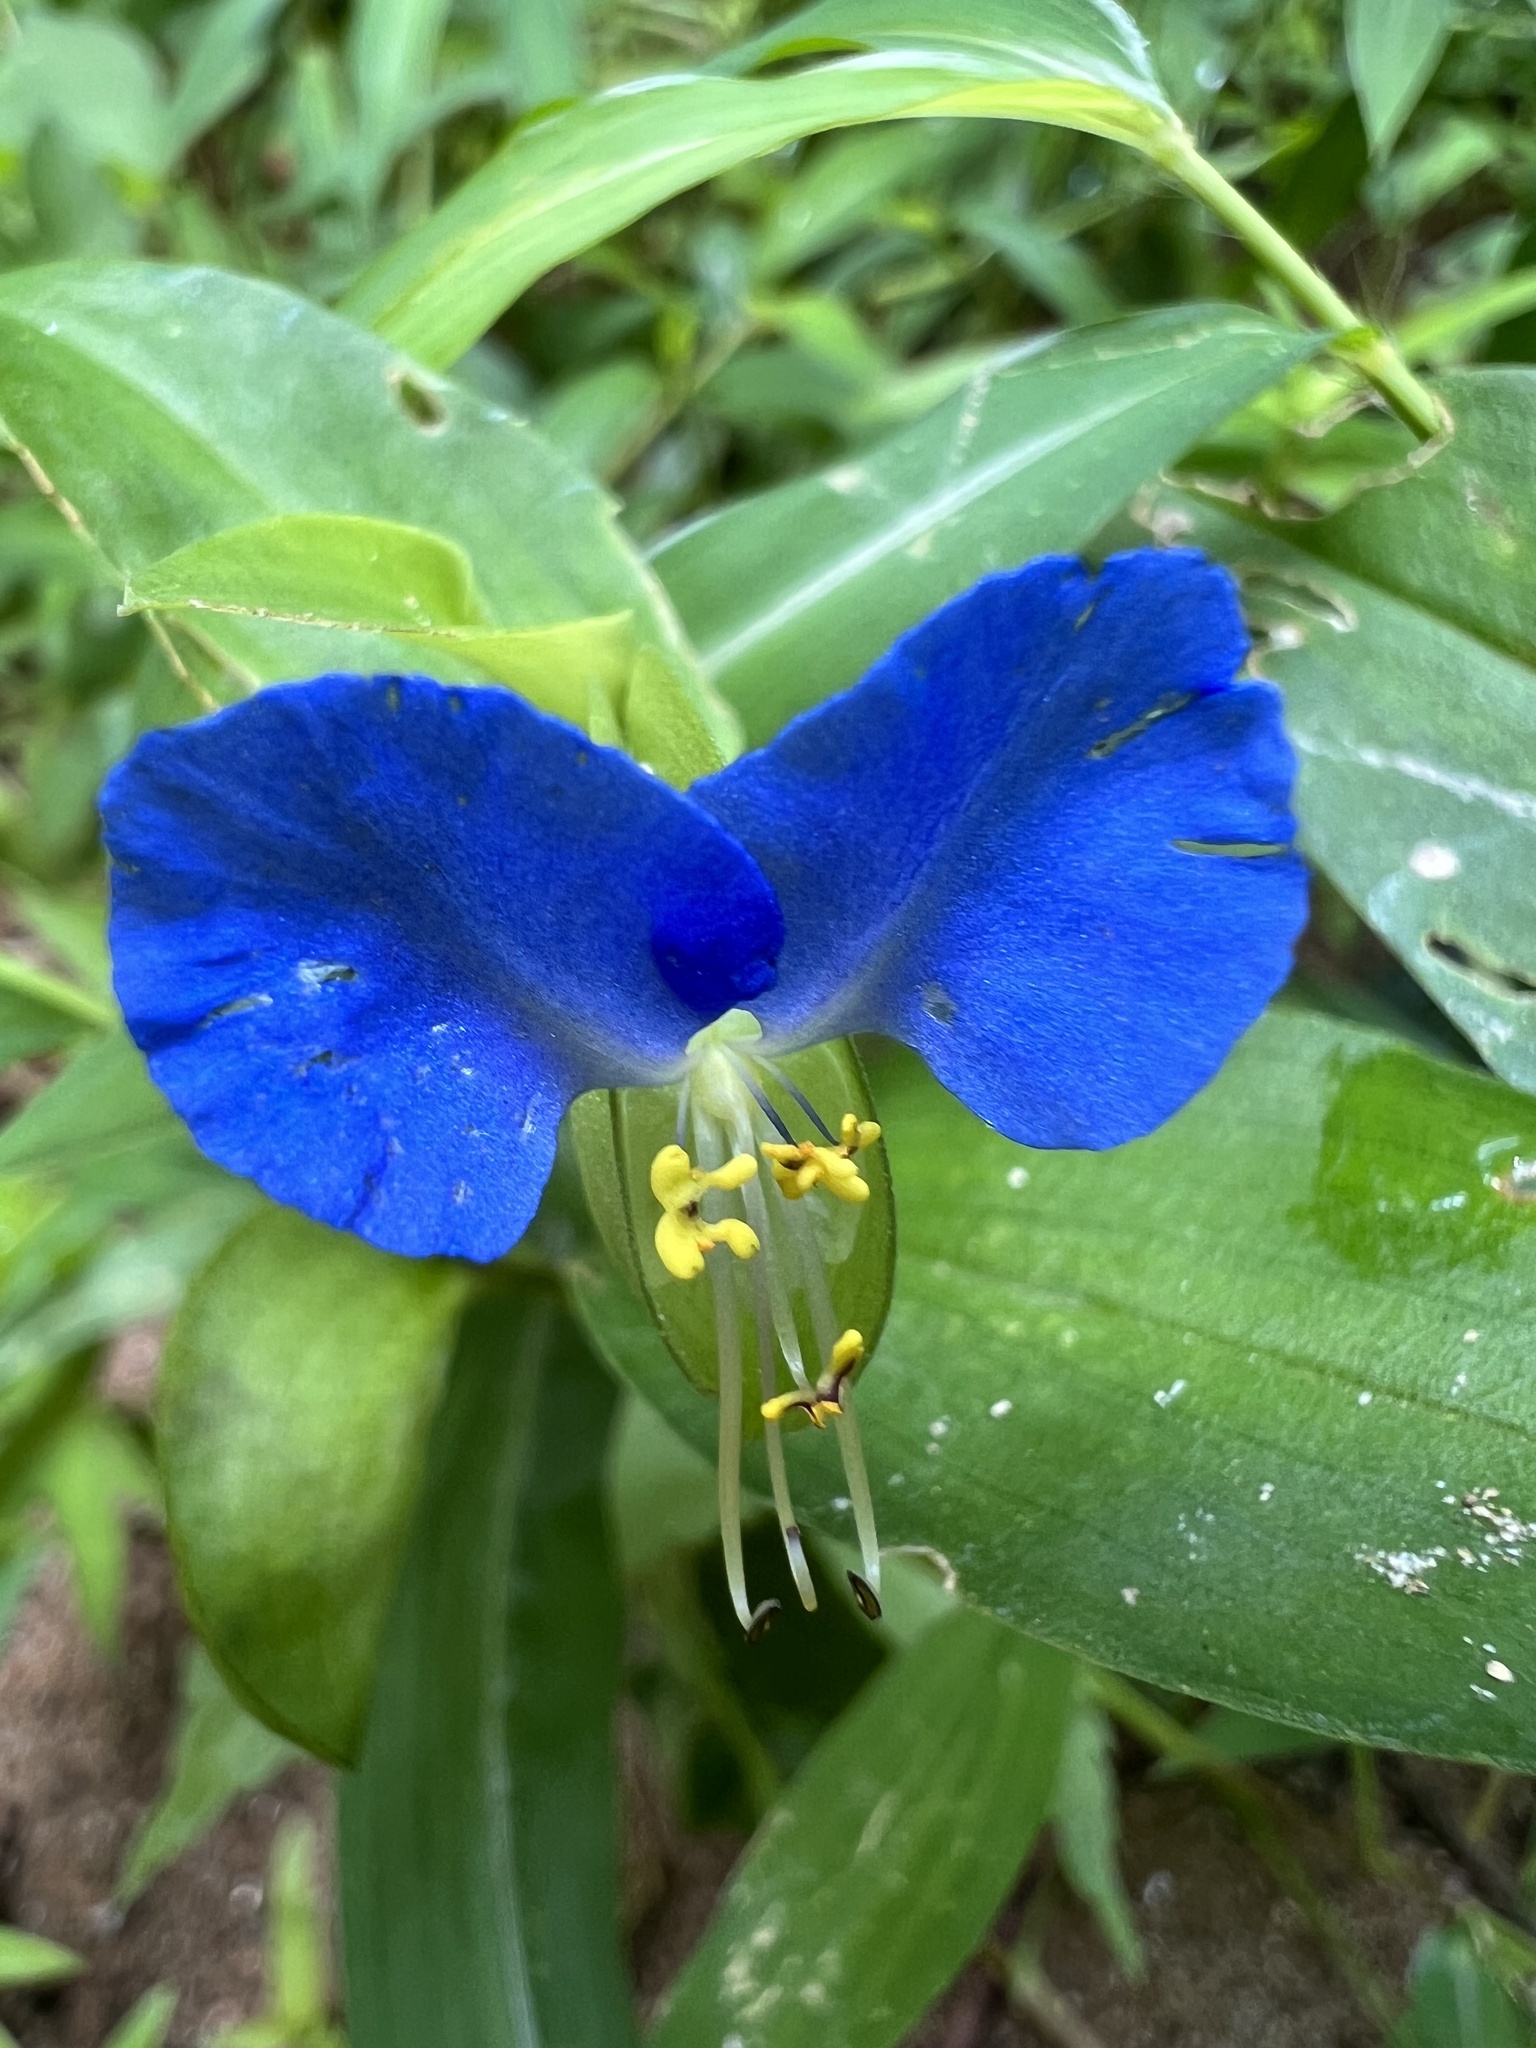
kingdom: Plantae
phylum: Tracheophyta
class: Liliopsida
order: Commelinales
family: Commelinaceae
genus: Commelina
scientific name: Commelina communis
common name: Asiatic dayflower
